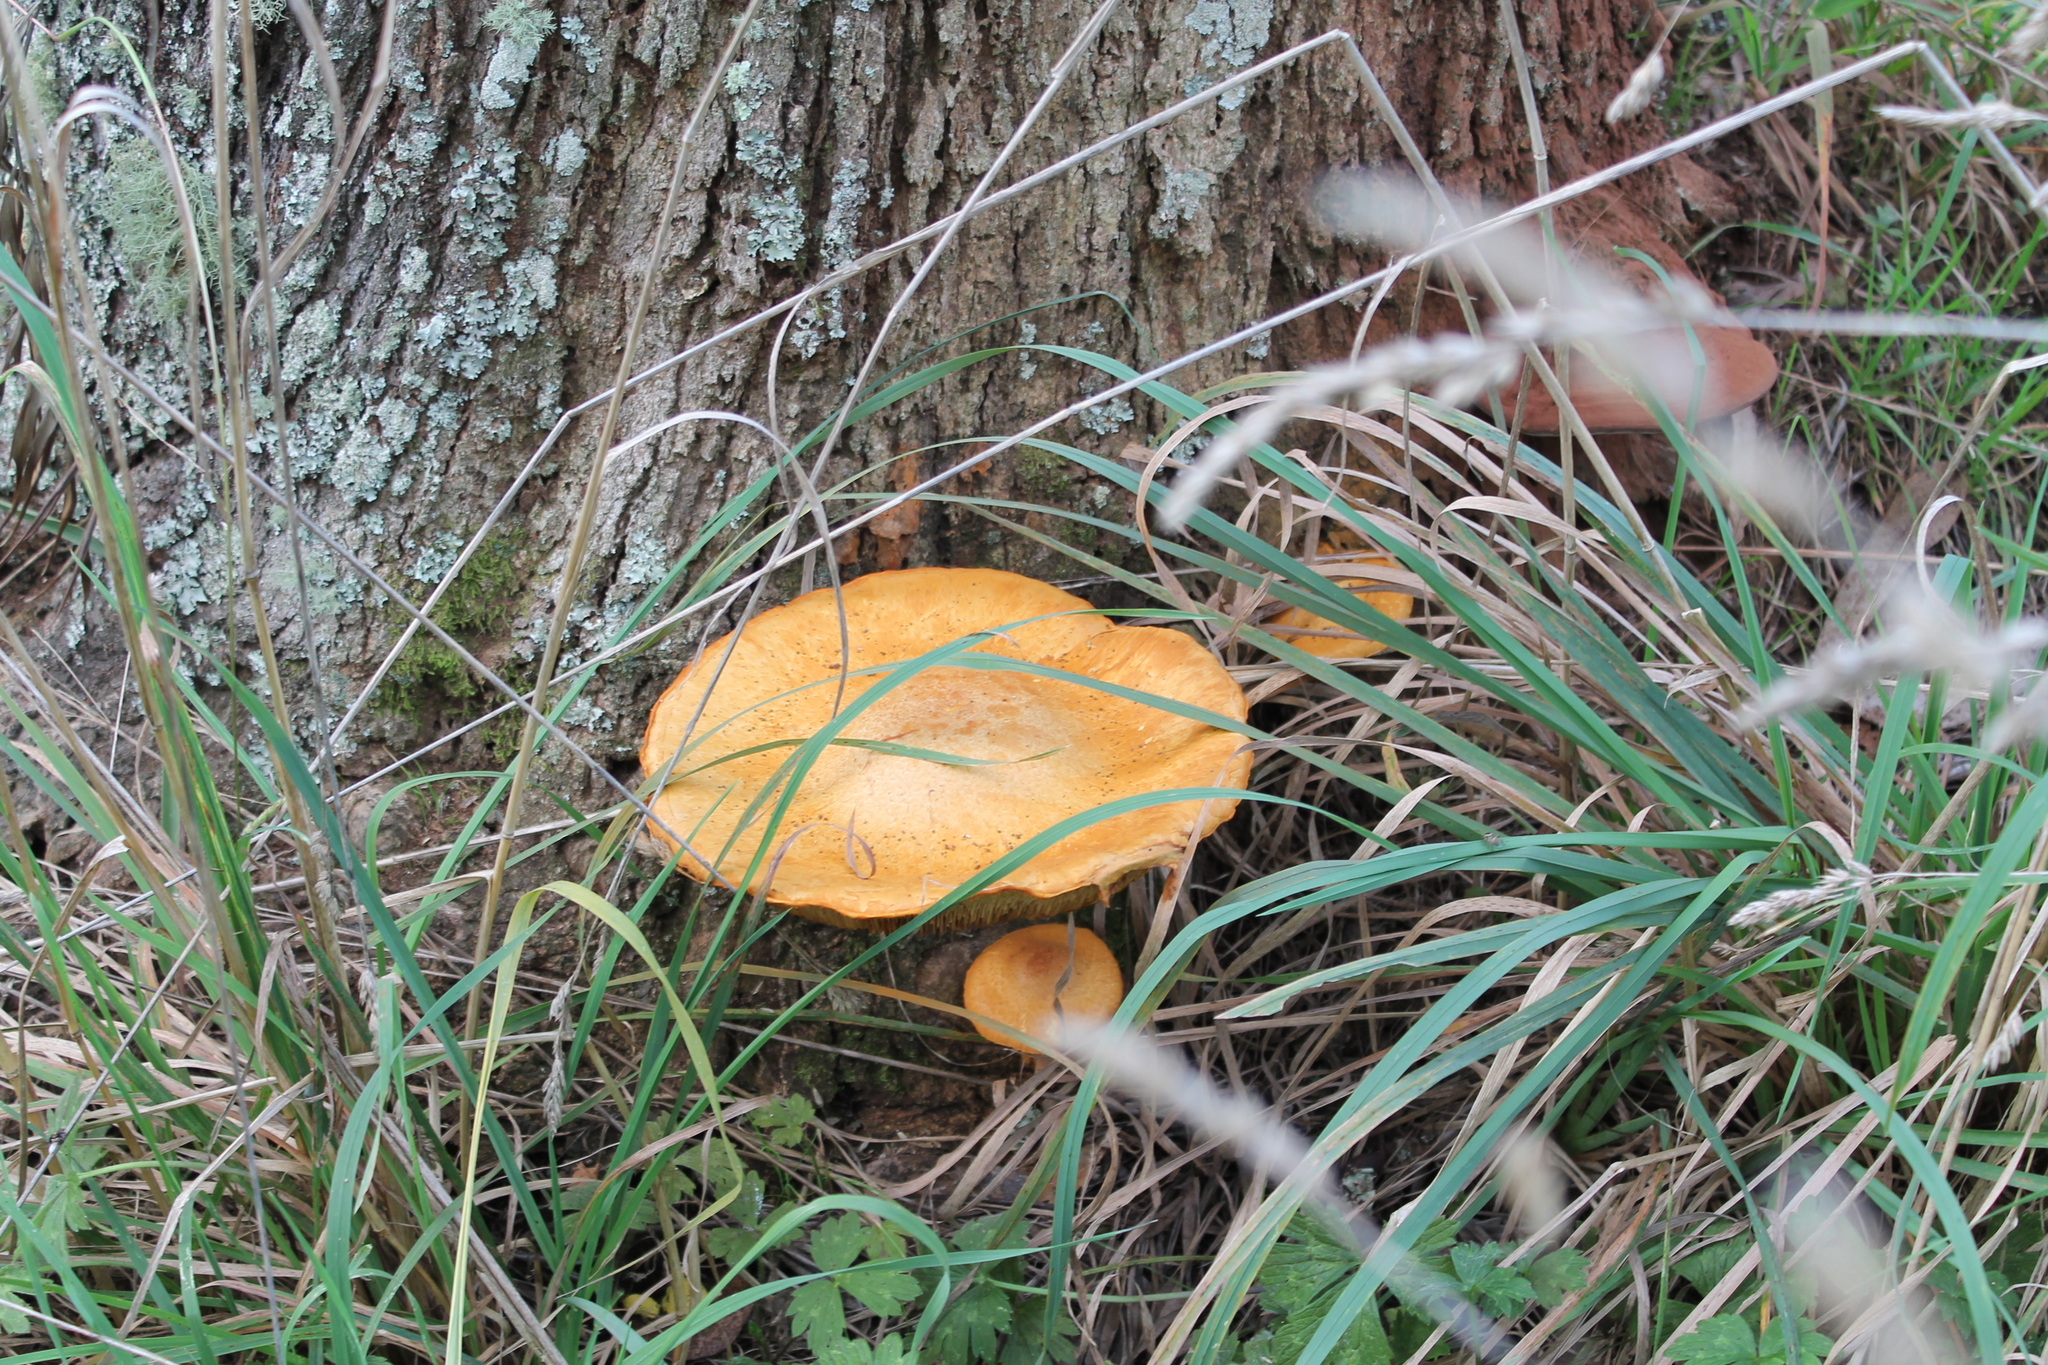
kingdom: Fungi
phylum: Basidiomycota
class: Agaricomycetes
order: Agaricales
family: Hymenogastraceae
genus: Gymnopilus
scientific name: Gymnopilus junonius
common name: Spectacular rustgill
